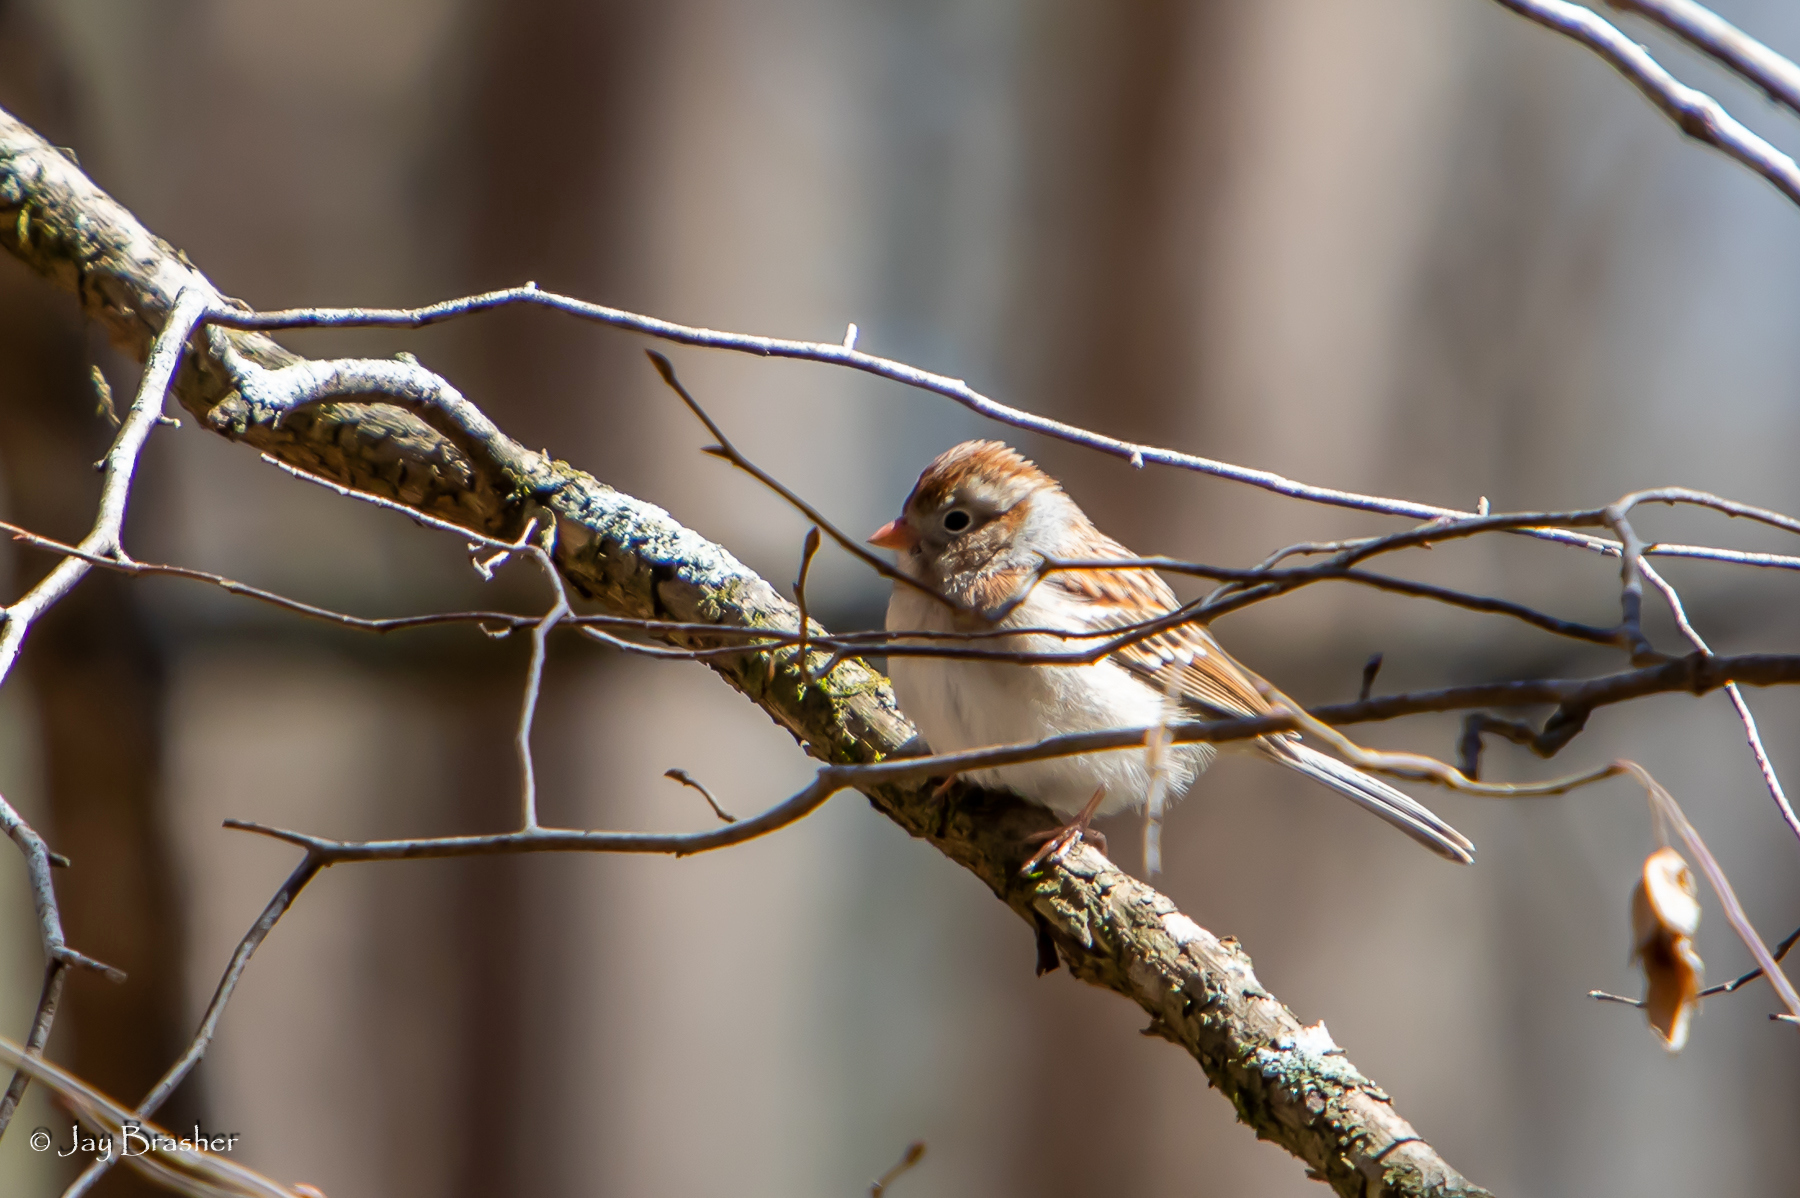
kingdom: Animalia
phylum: Chordata
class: Aves
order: Passeriformes
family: Passerellidae
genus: Spizella
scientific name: Spizella pusilla
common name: Field sparrow
